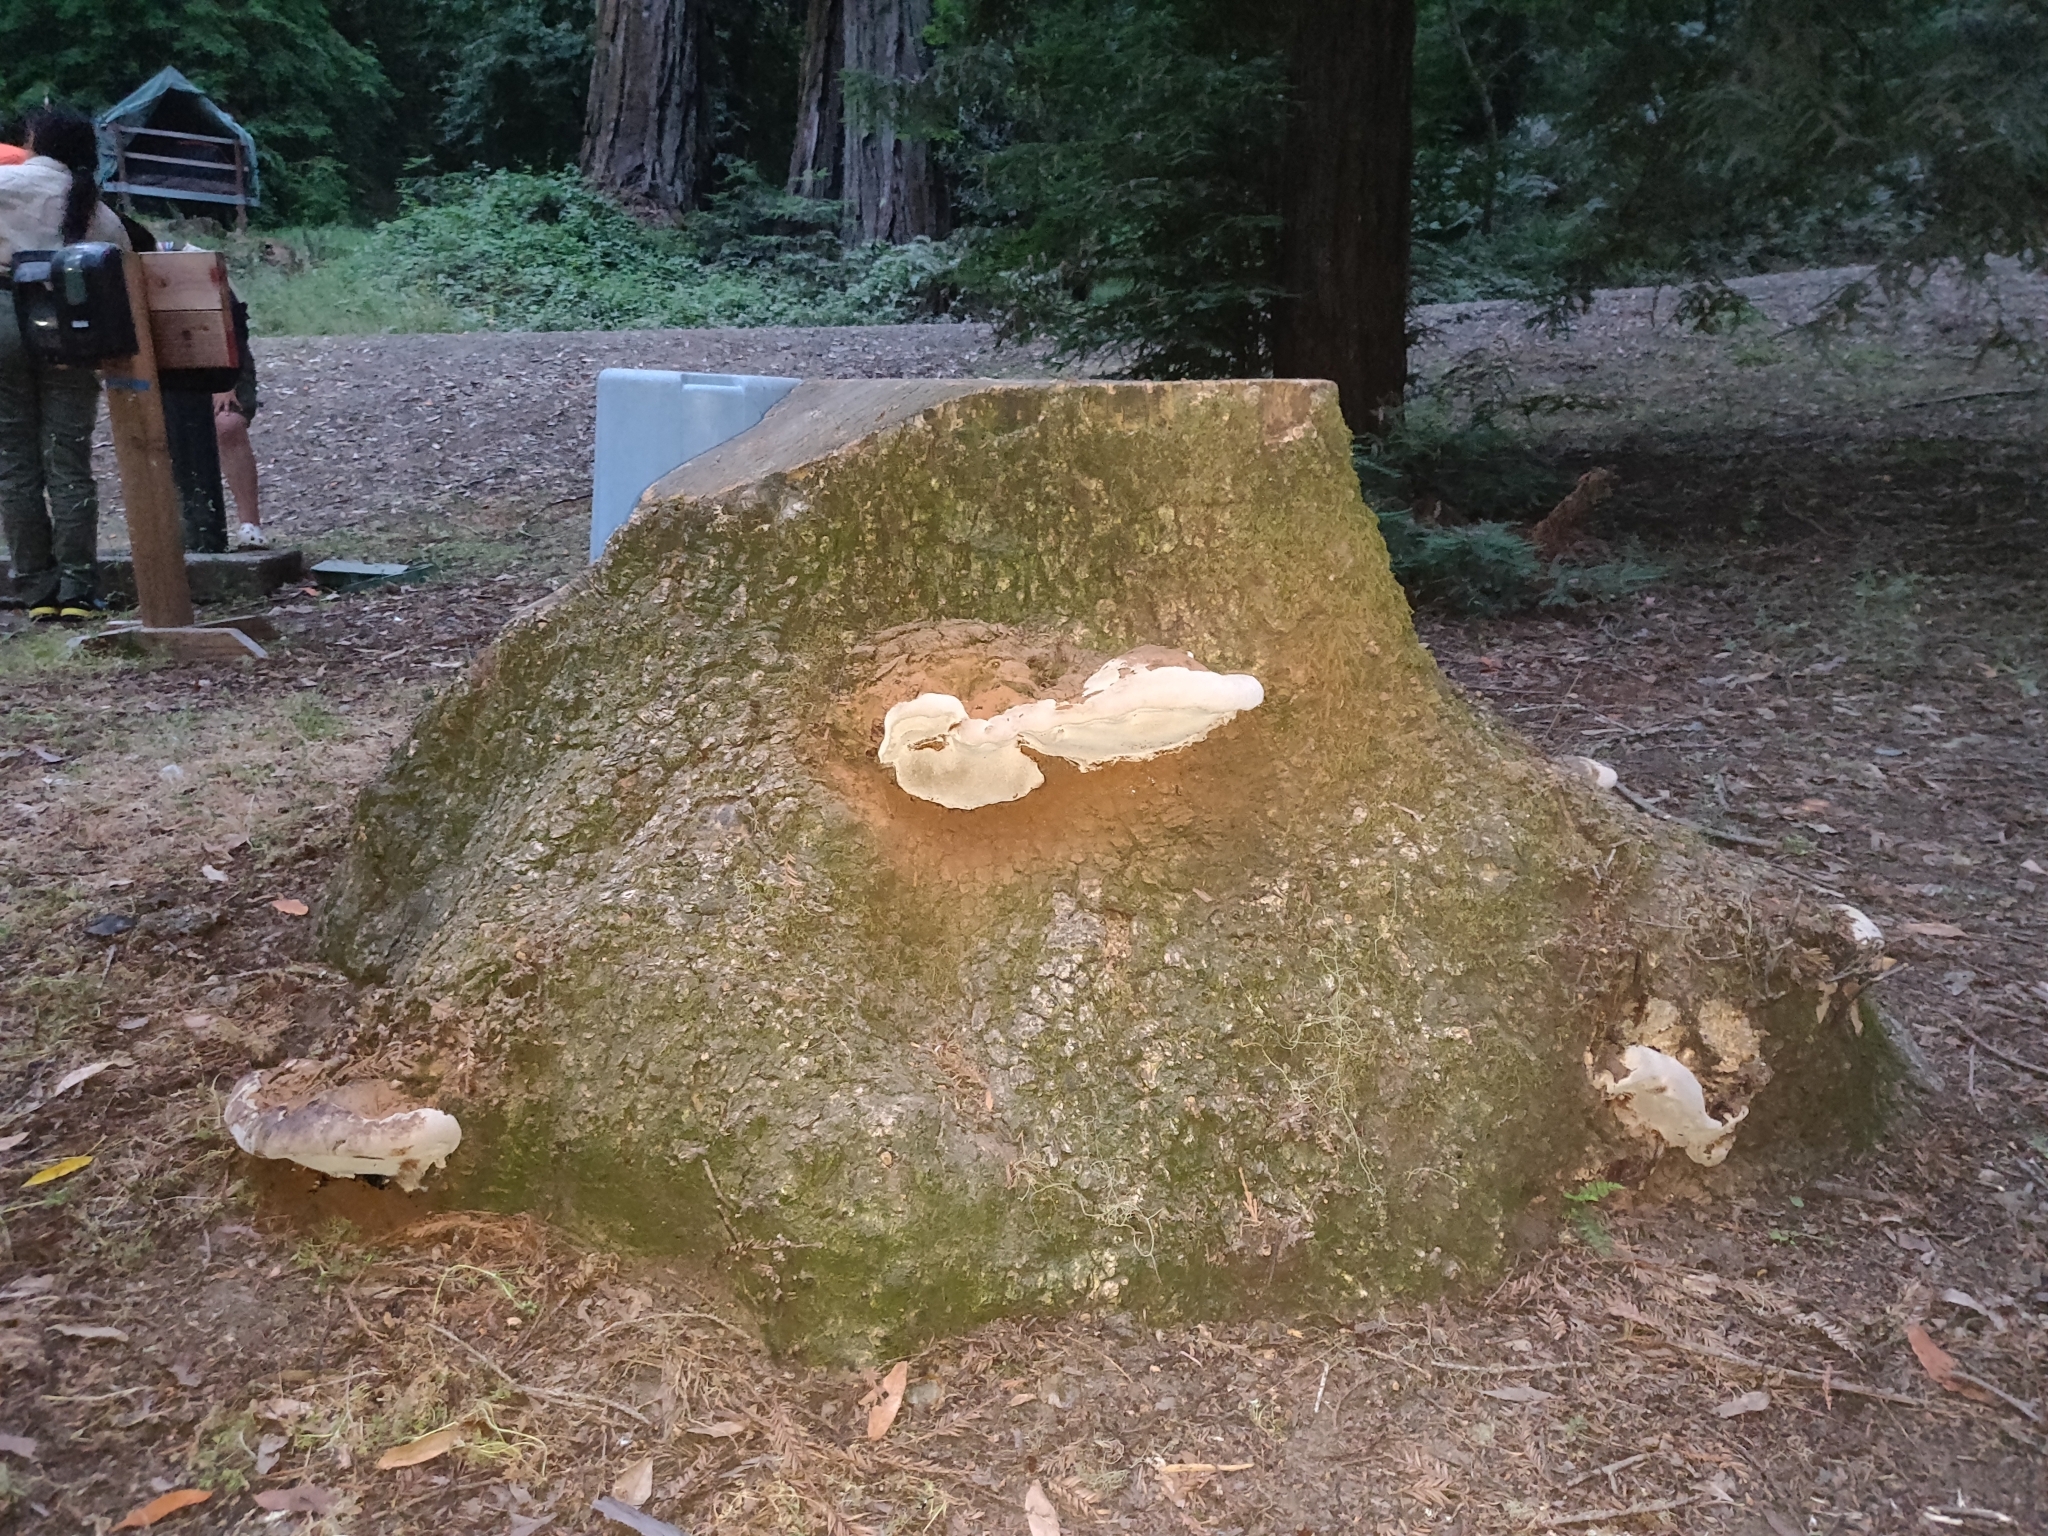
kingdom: Fungi
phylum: Basidiomycota
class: Agaricomycetes
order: Polyporales
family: Polyporaceae
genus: Ganoderma
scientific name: Ganoderma brownii
